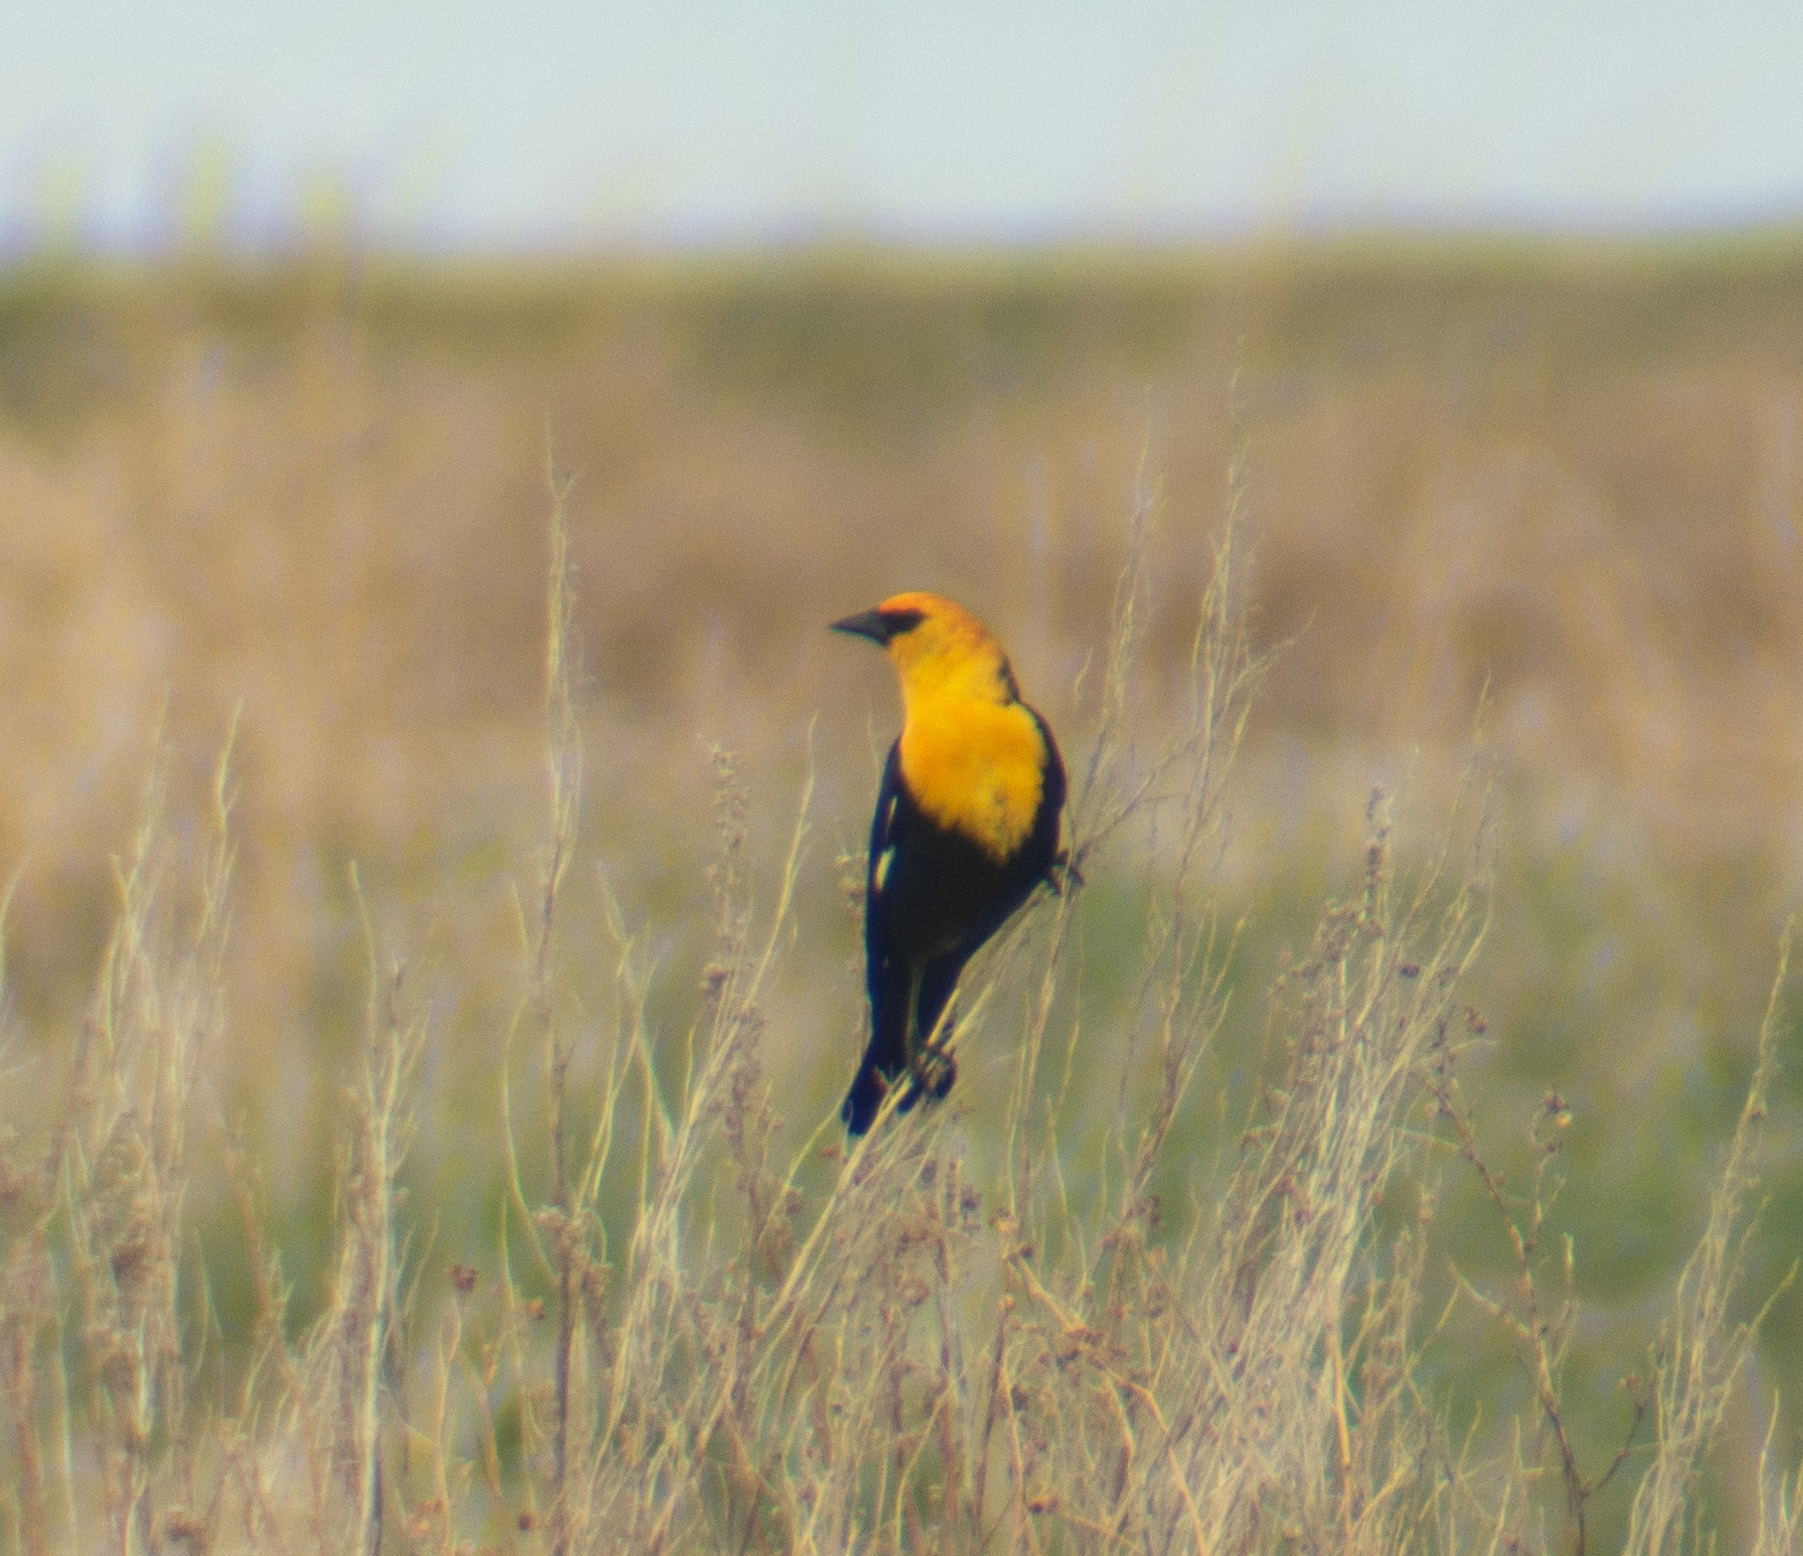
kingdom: Animalia
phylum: Chordata
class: Aves
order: Passeriformes
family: Icteridae
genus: Xanthocephalus
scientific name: Xanthocephalus xanthocephalus
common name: Yellow-headed blackbird
